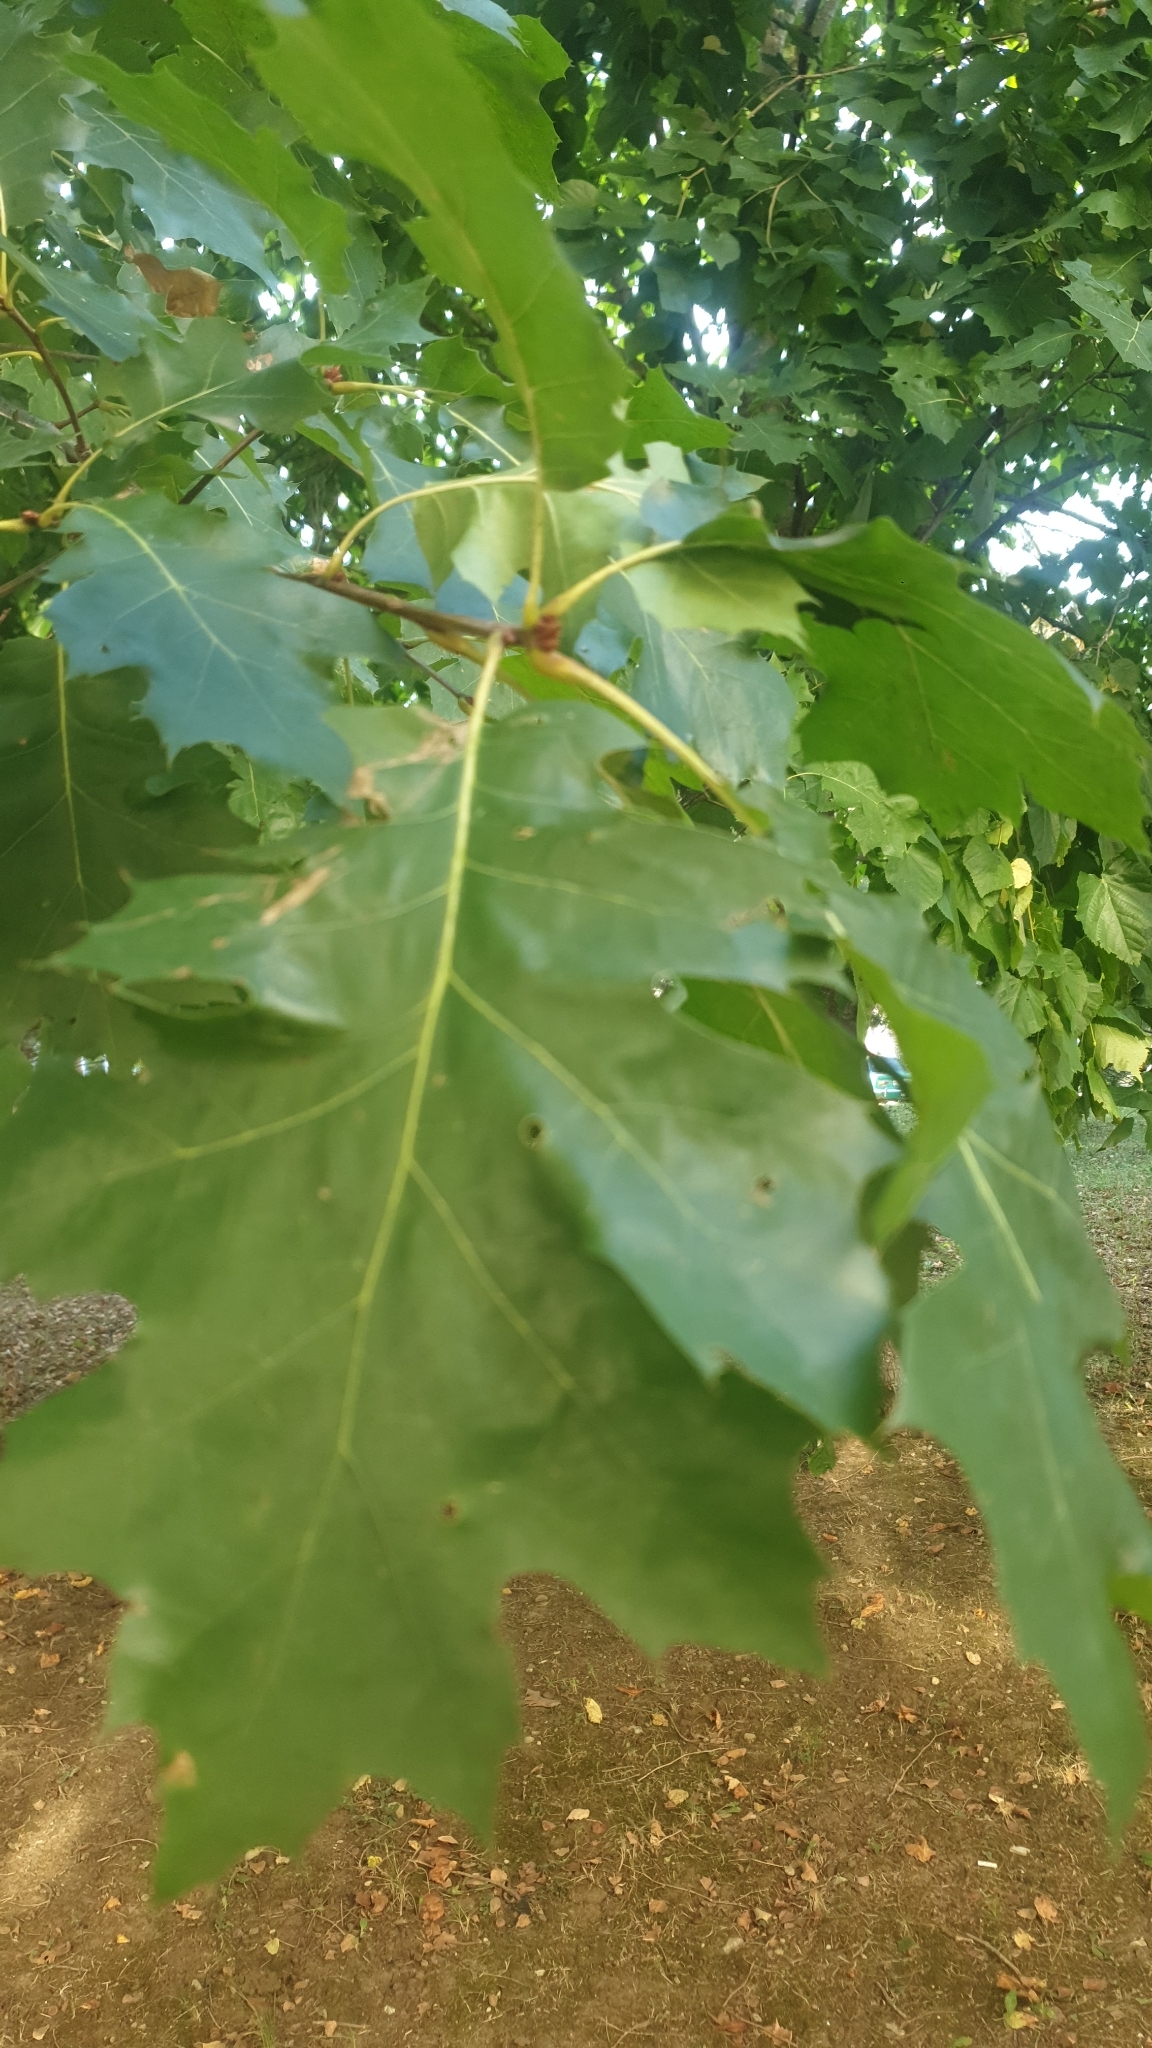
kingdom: Plantae
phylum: Tracheophyta
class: Magnoliopsida
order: Fagales
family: Fagaceae
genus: Quercus
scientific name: Quercus rubra
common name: Red oak
